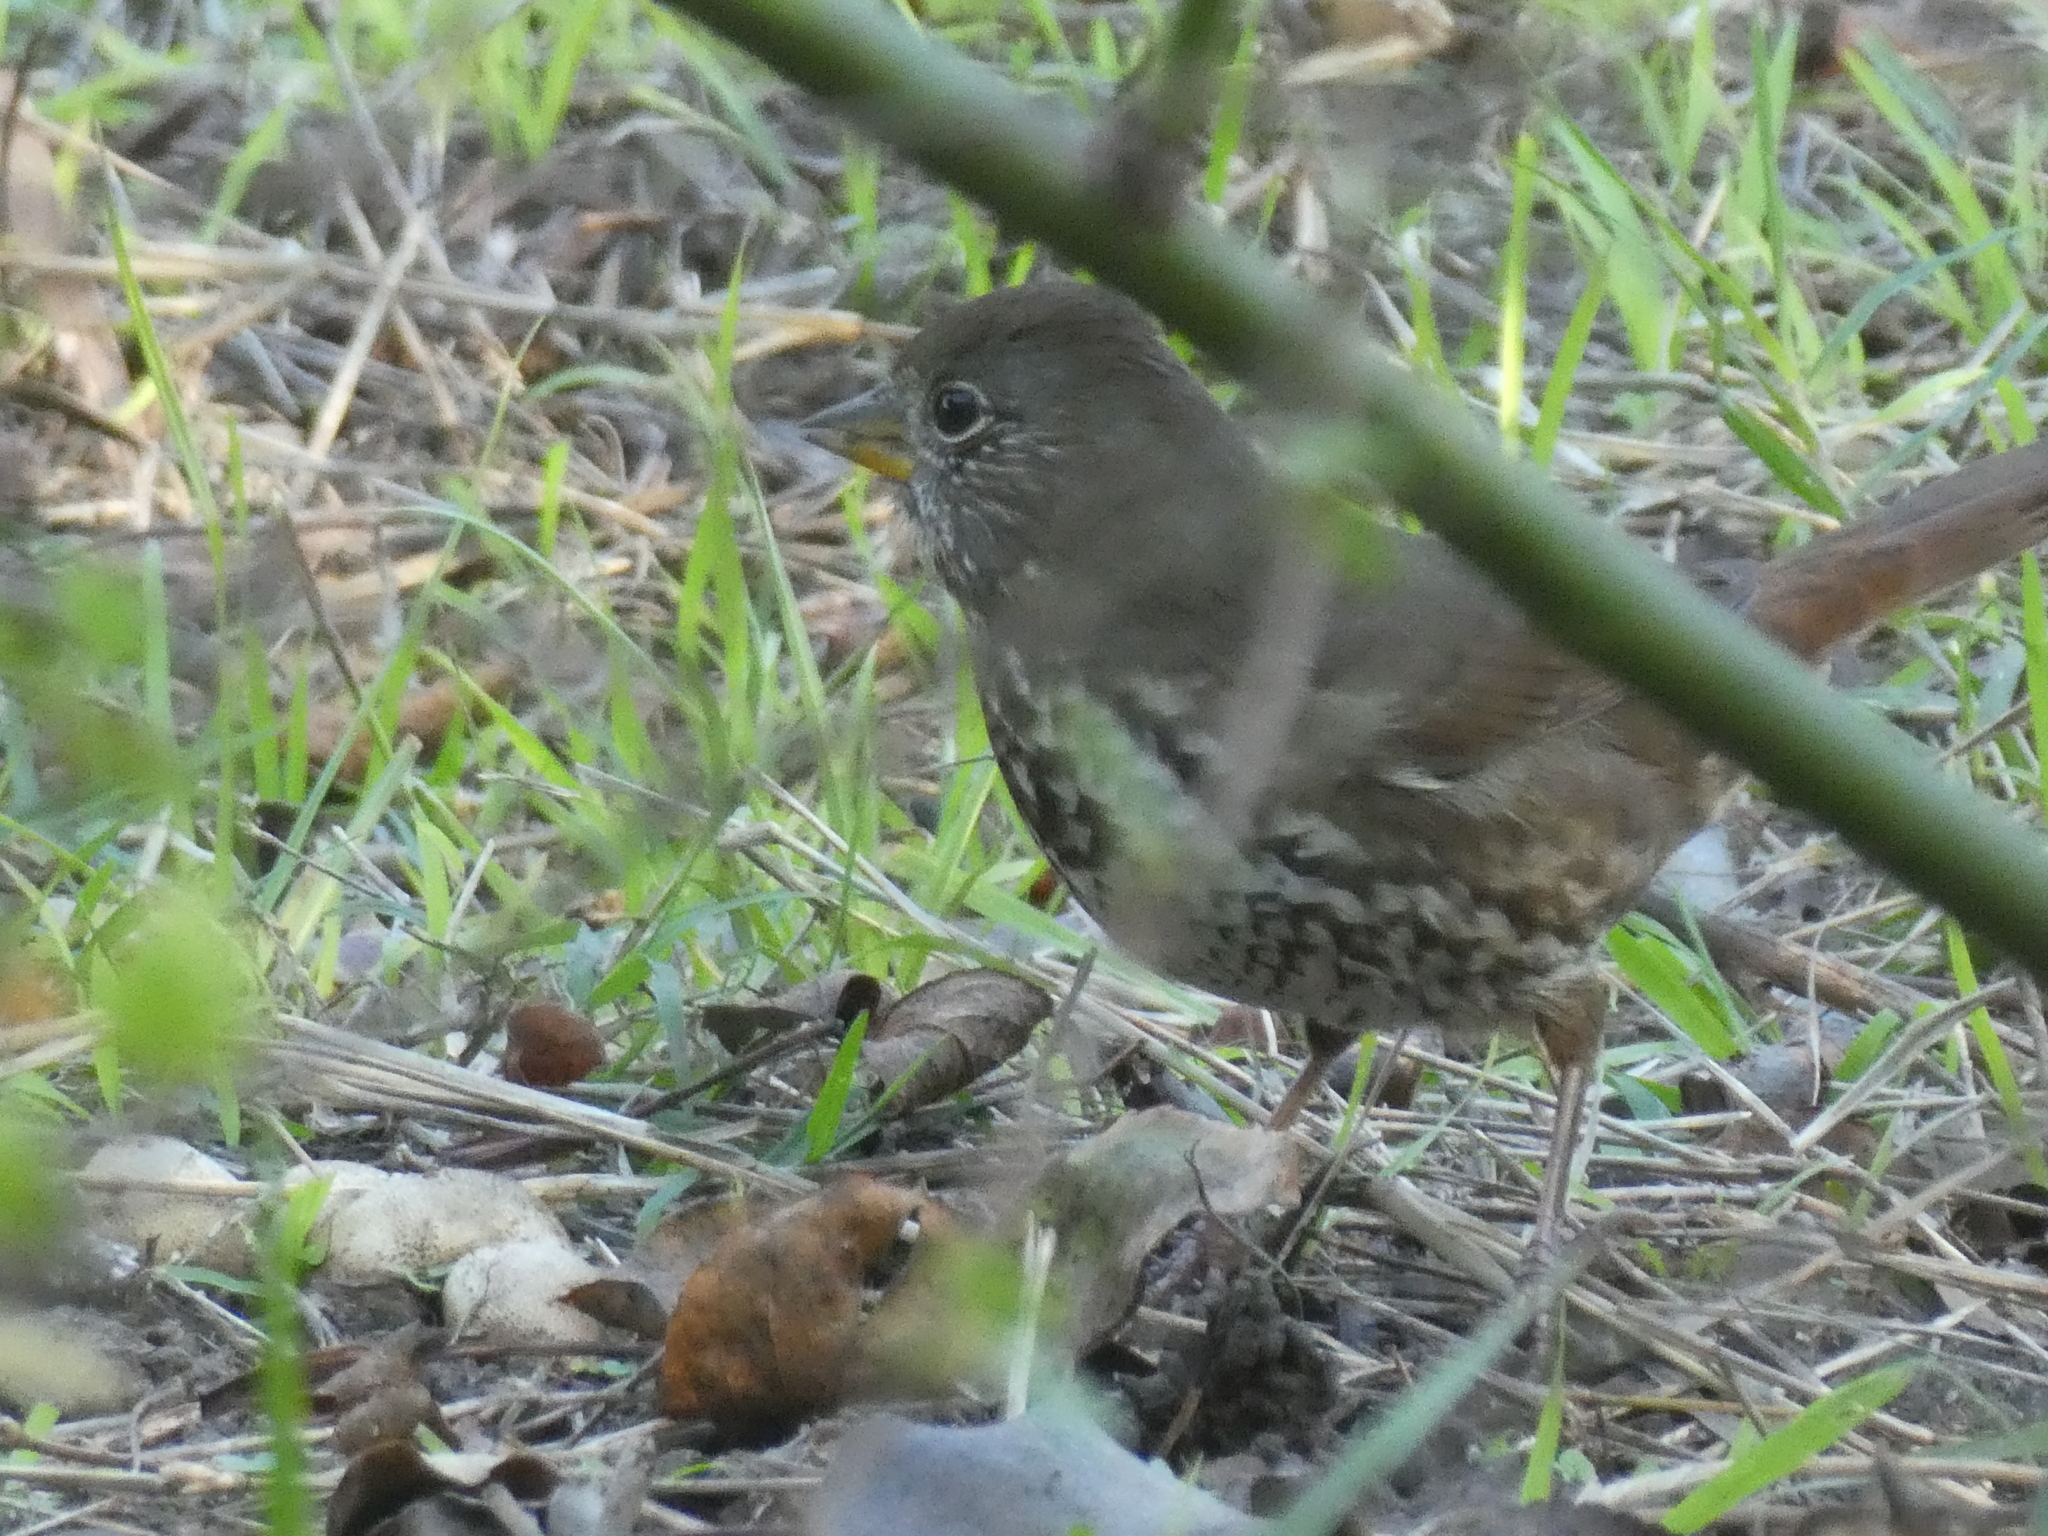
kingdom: Animalia
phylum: Chordata
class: Aves
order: Passeriformes
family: Passerellidae
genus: Passerella
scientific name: Passerella iliaca
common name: Fox sparrow
